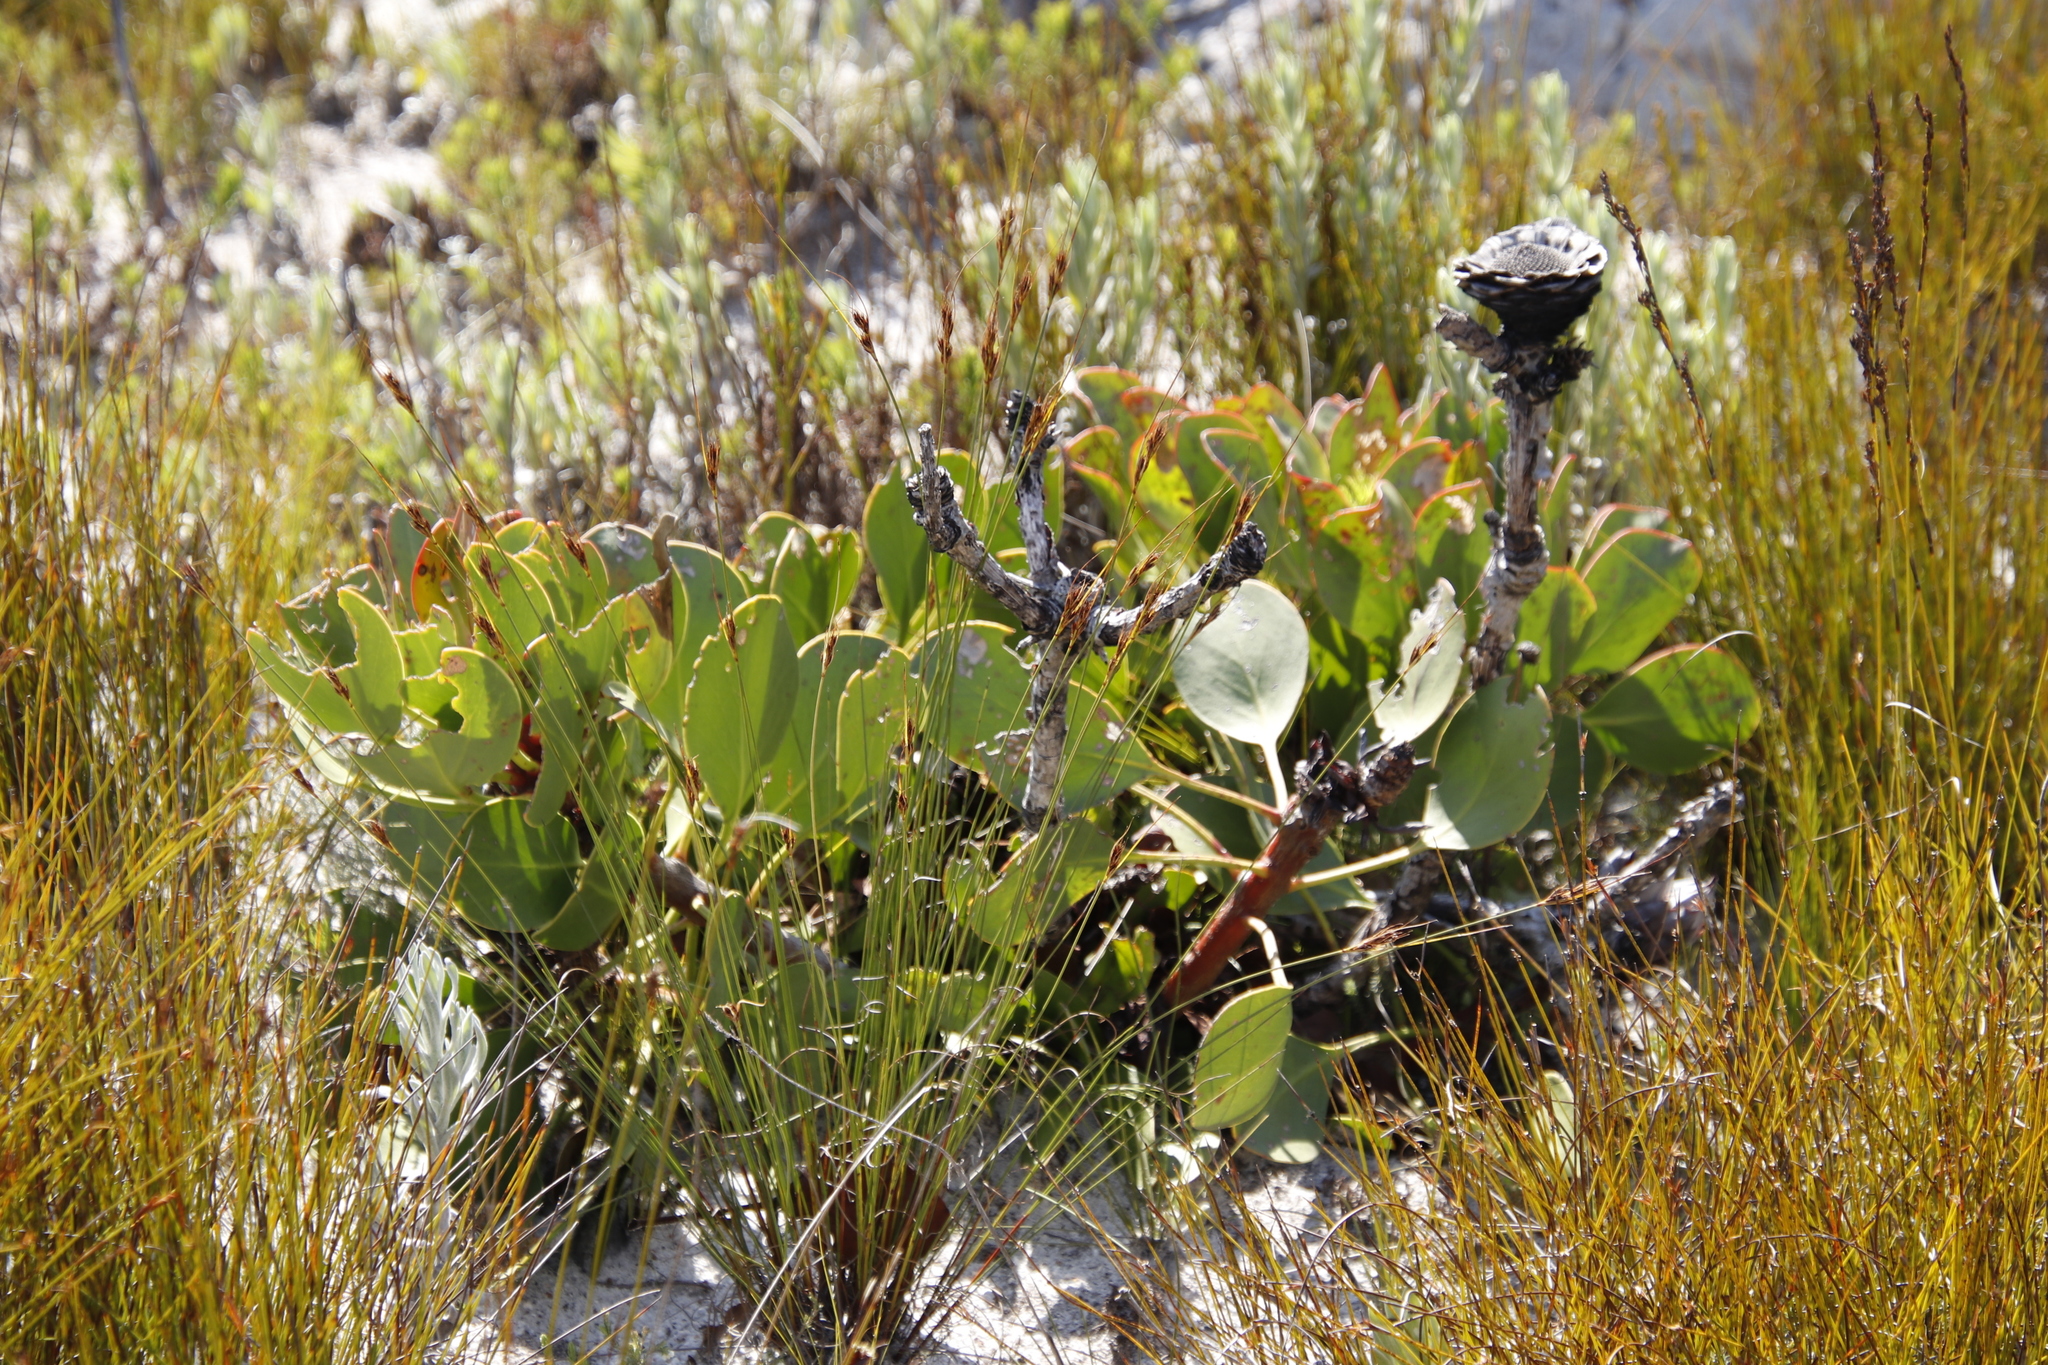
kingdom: Plantae
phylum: Tracheophyta
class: Magnoliopsida
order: Proteales
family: Proteaceae
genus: Protea
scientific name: Protea cynaroides
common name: King protea
